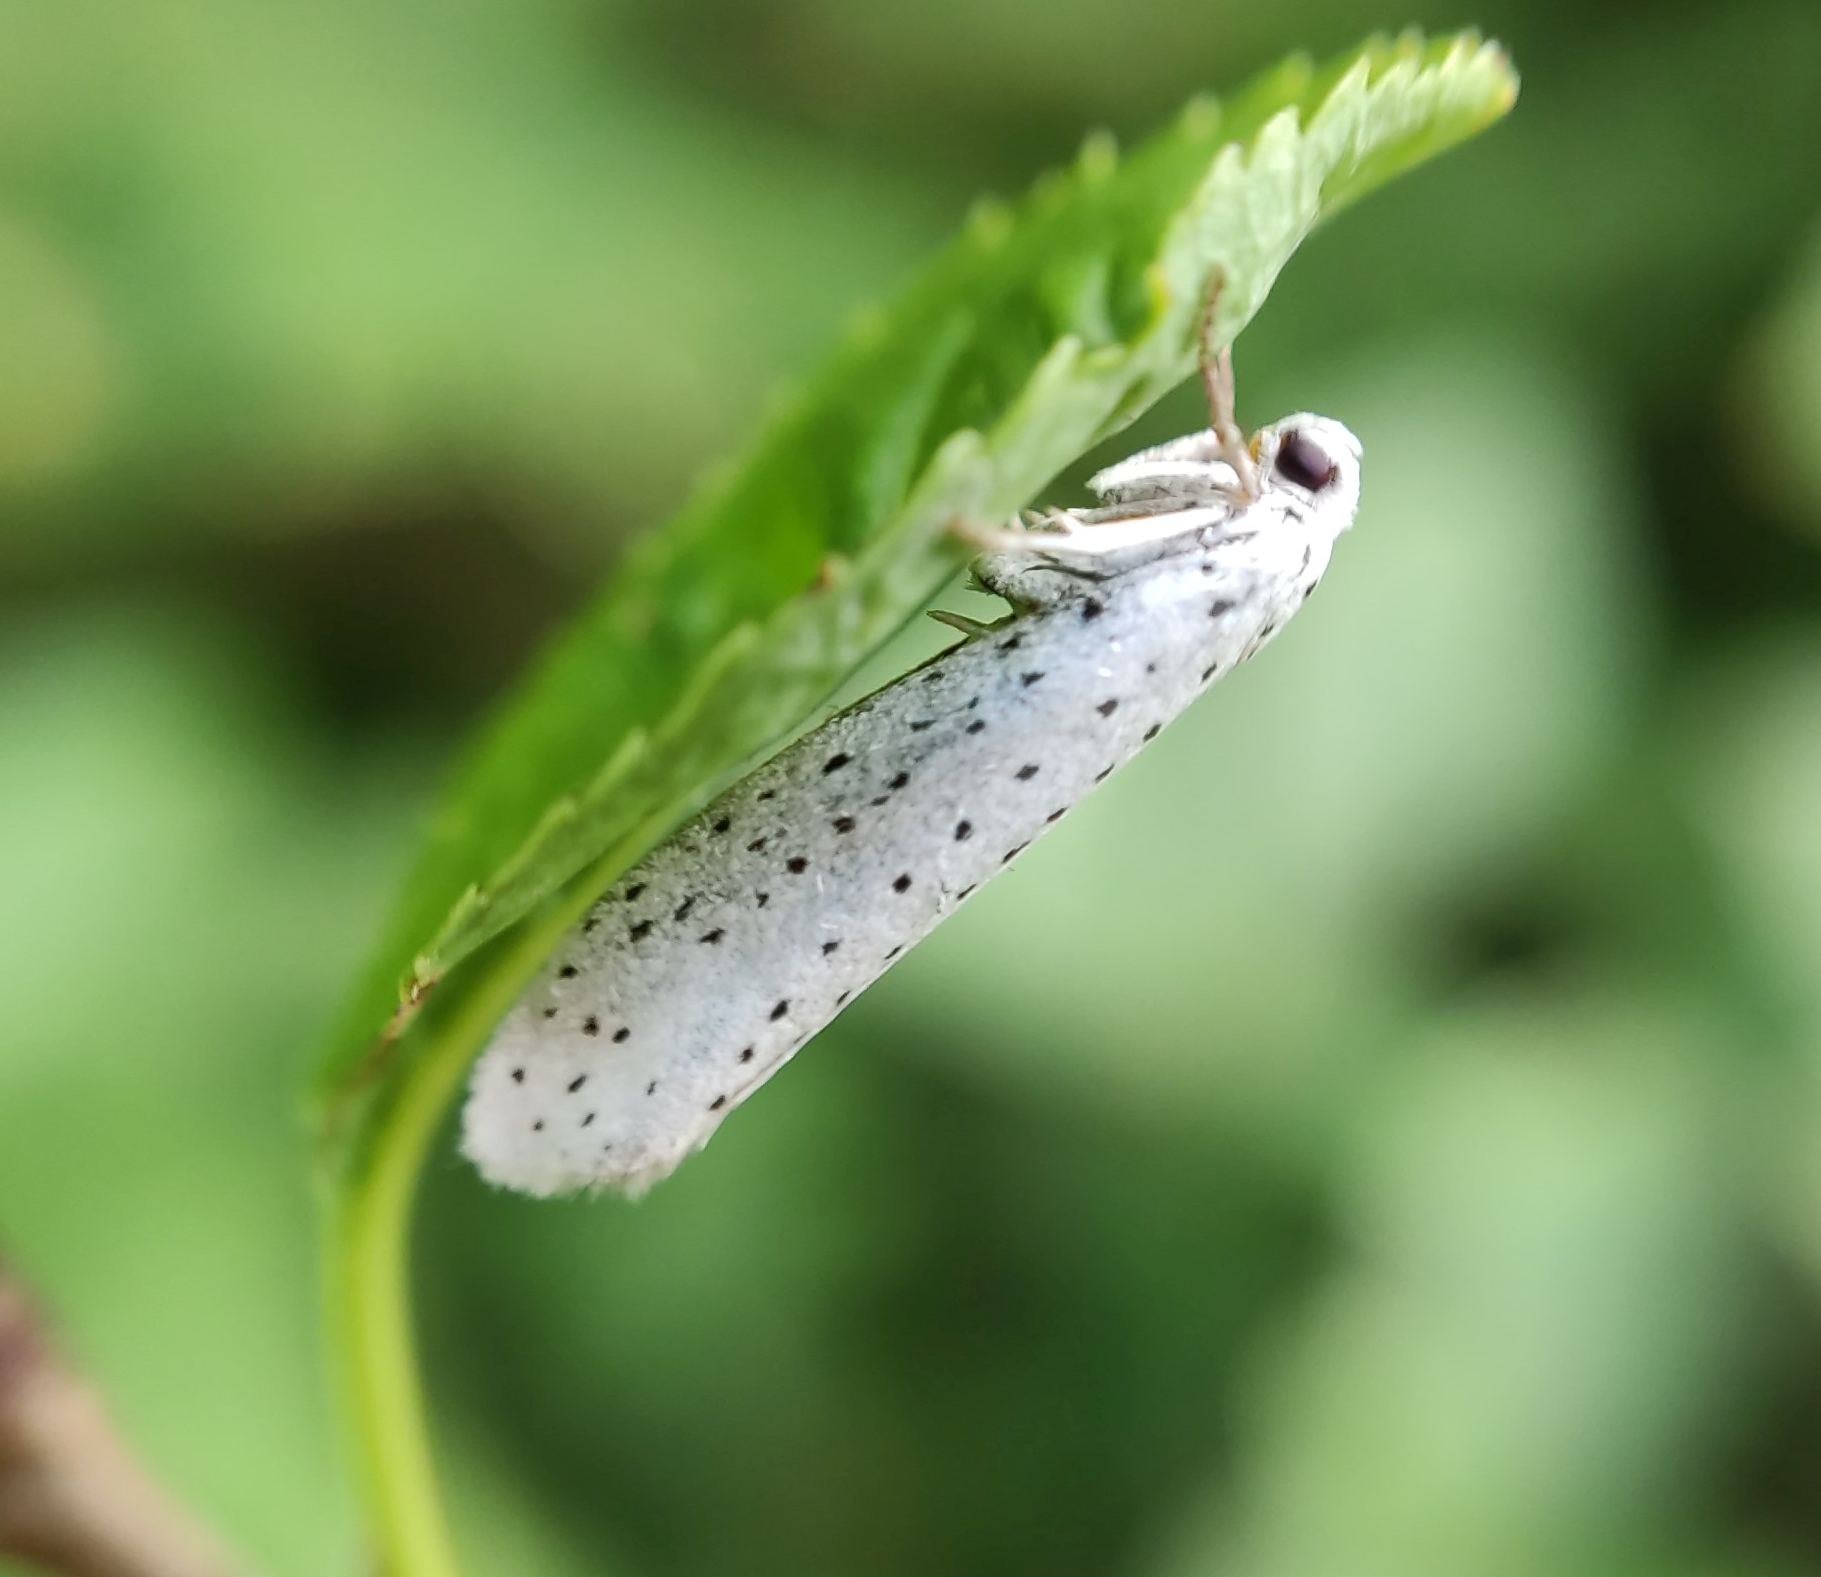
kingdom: Animalia
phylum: Arthropoda
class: Insecta
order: Lepidoptera
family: Yponomeutidae
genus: Yponomeuta
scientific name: Yponomeuta evonymella
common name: Bird-cherry ermine
